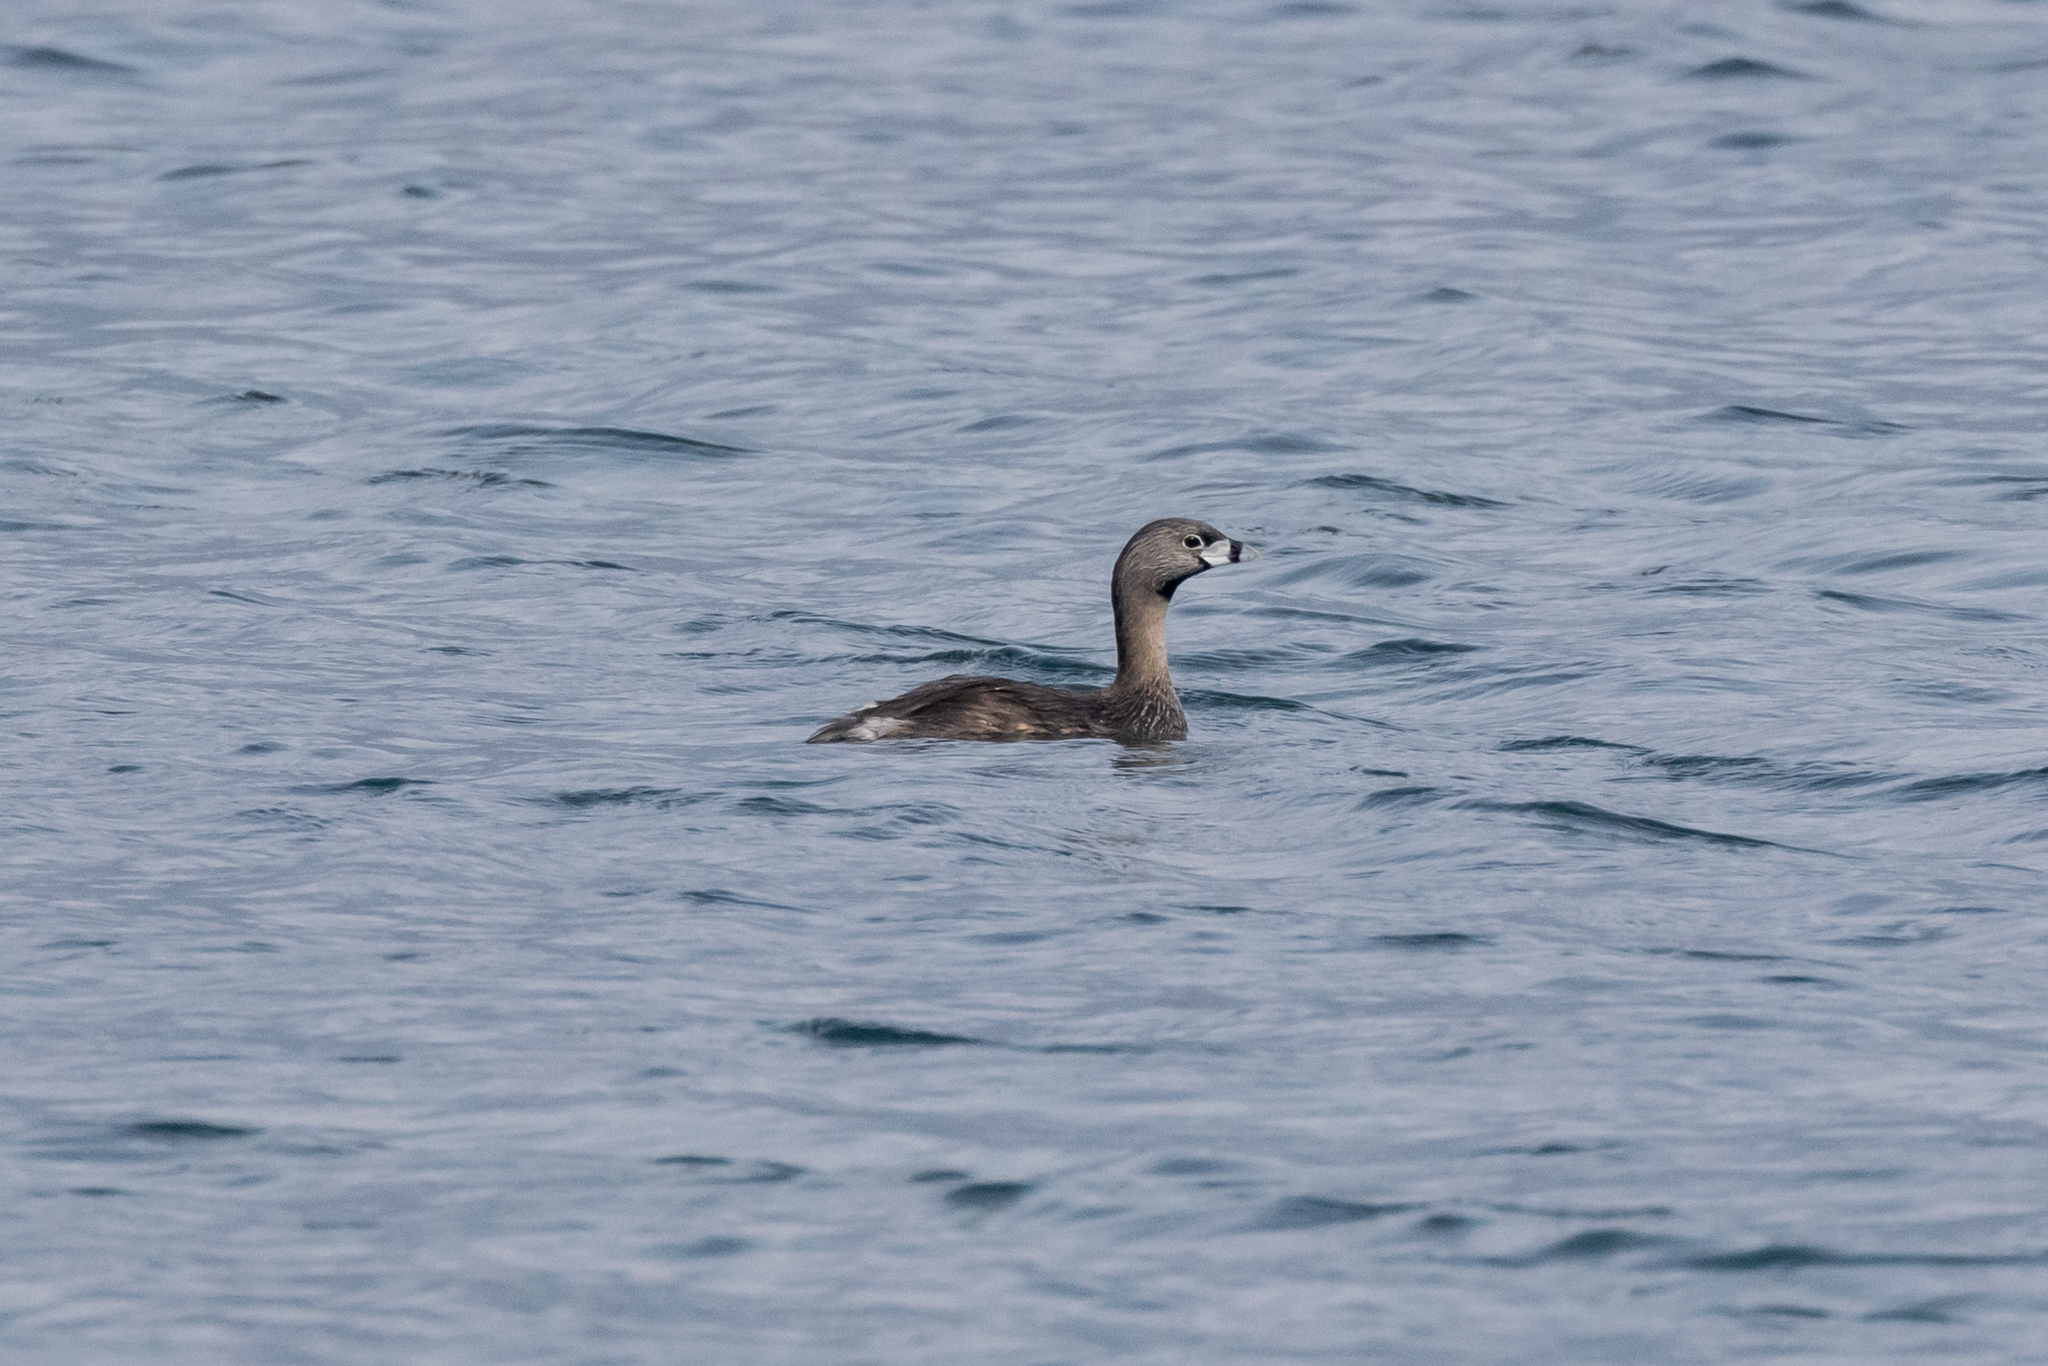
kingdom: Animalia
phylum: Chordata
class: Aves
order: Podicipediformes
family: Podicipedidae
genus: Podilymbus
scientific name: Podilymbus podiceps
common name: Pied-billed grebe
